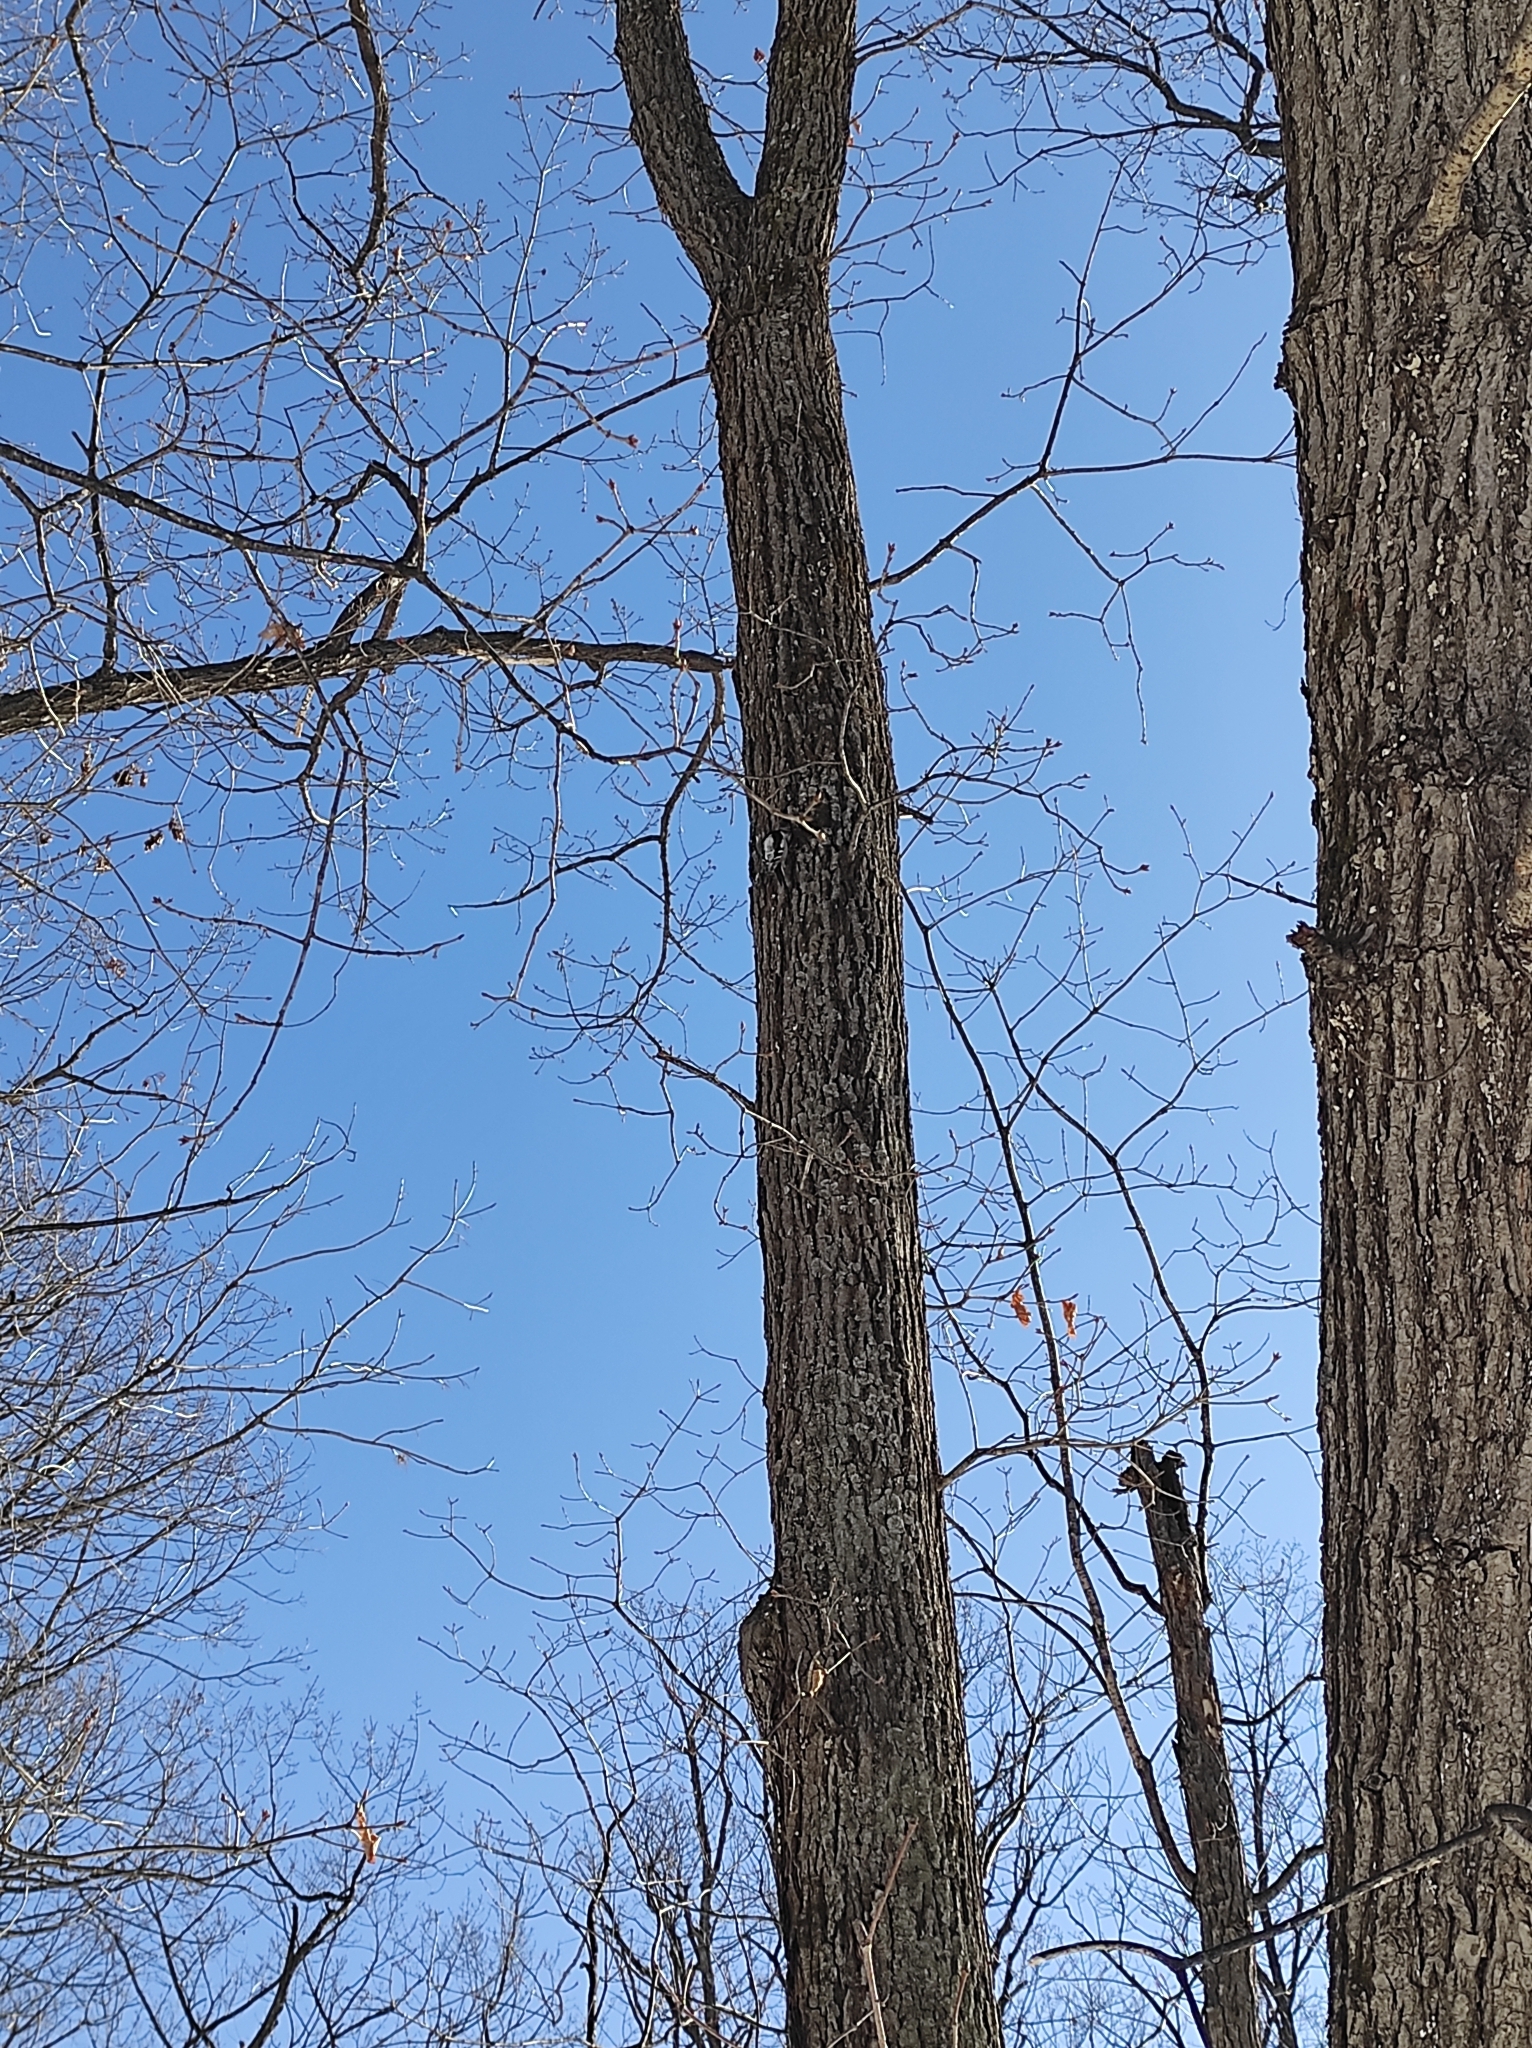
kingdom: Animalia
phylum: Chordata
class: Aves
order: Piciformes
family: Picidae
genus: Dryobates
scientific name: Dryobates minor
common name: Lesser spotted woodpecker
